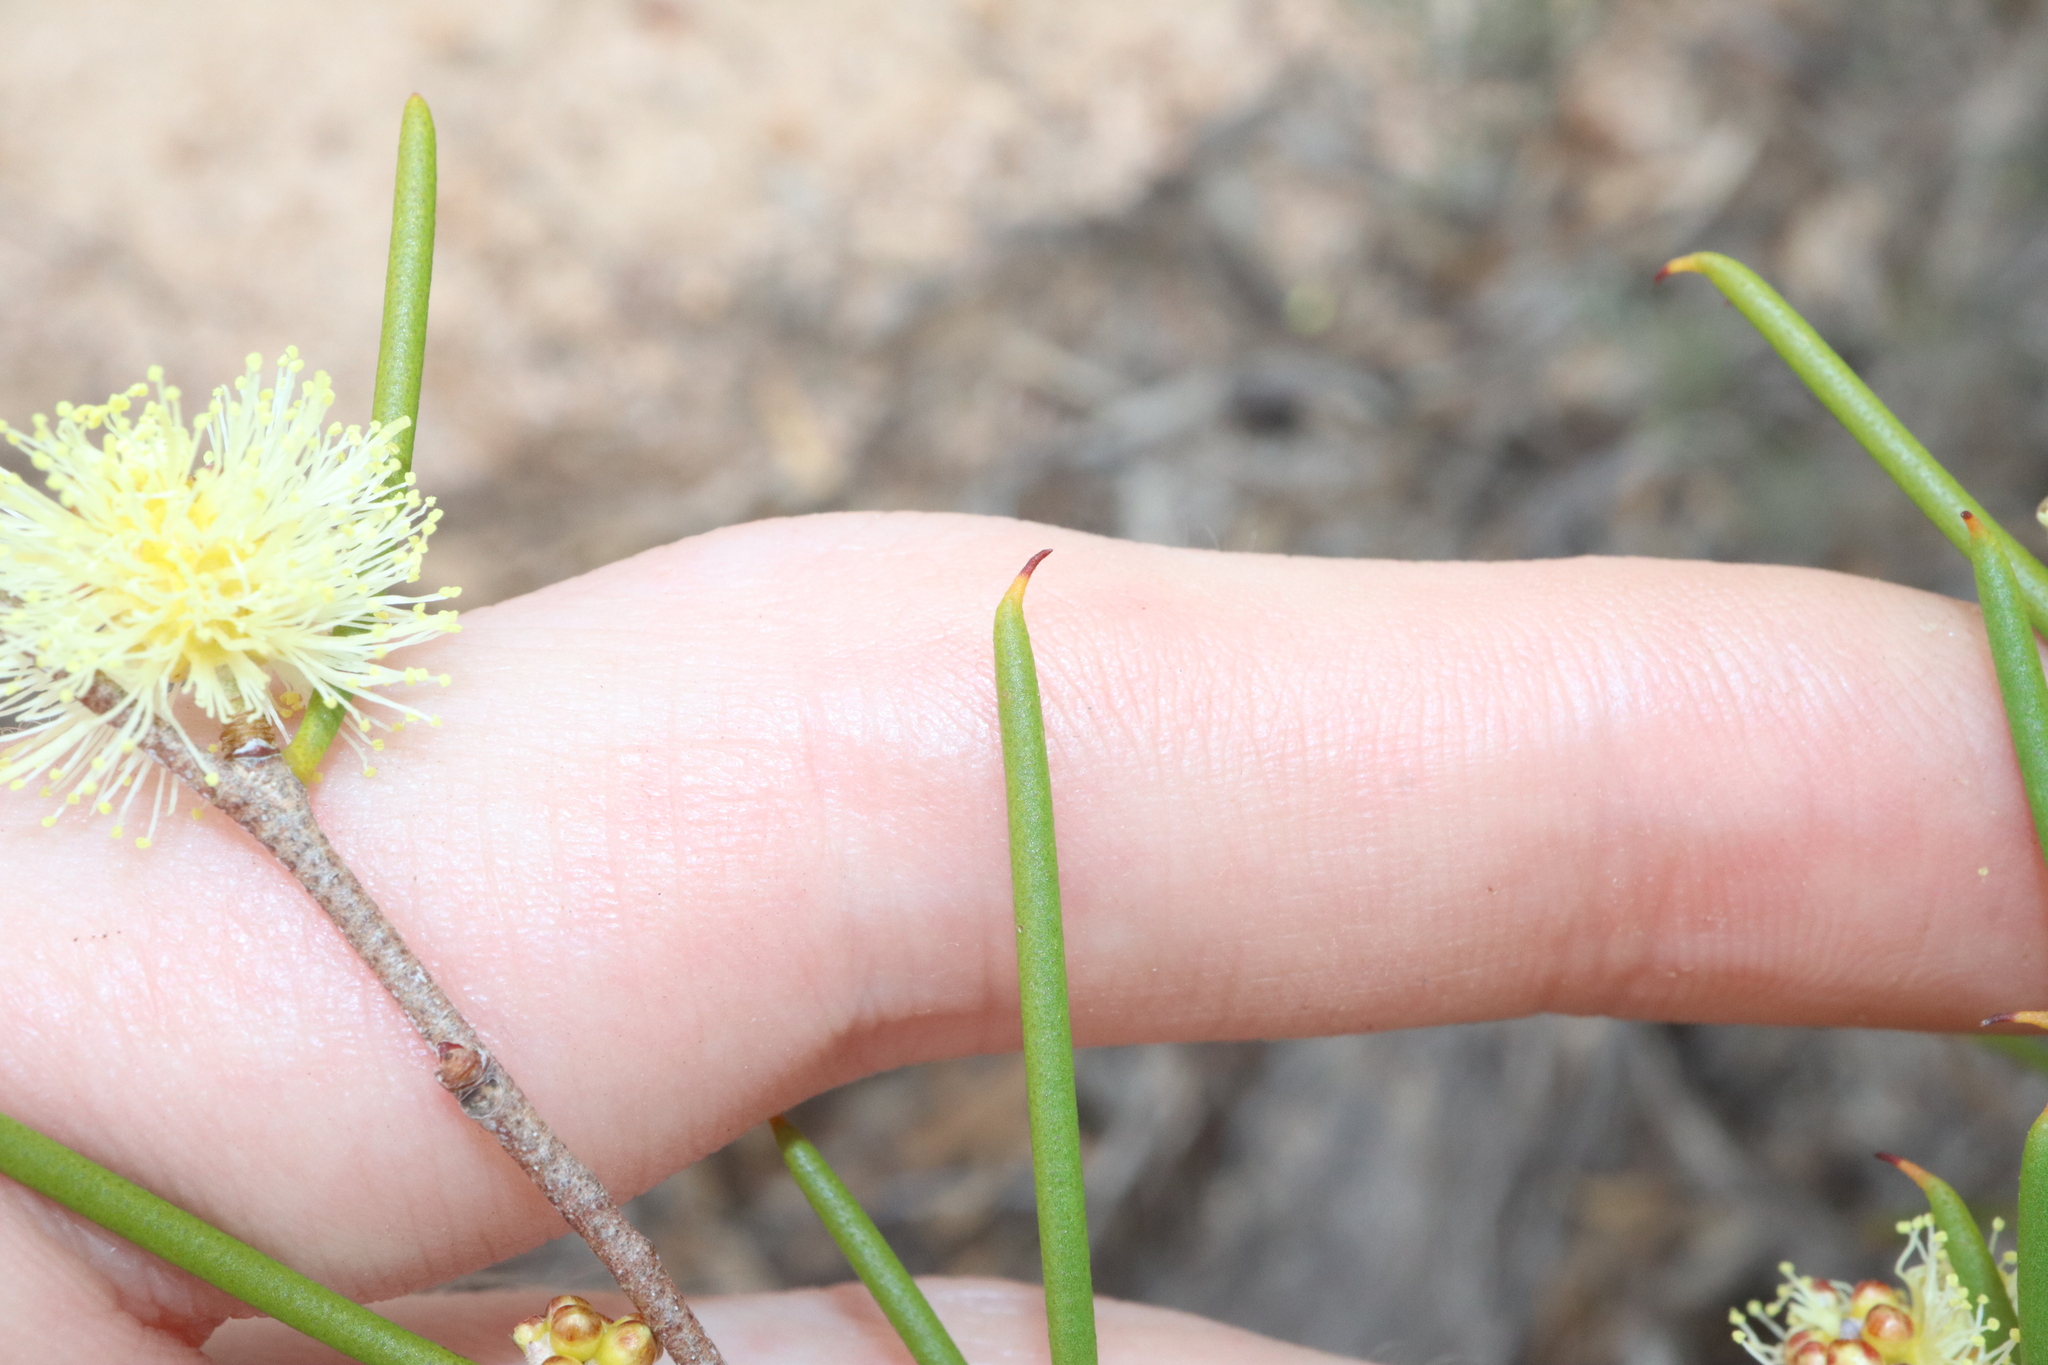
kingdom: Plantae
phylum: Tracheophyta
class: Magnoliopsida
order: Myrtales
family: Myrtaceae
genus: Melaleuca
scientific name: Melaleuca hamata
